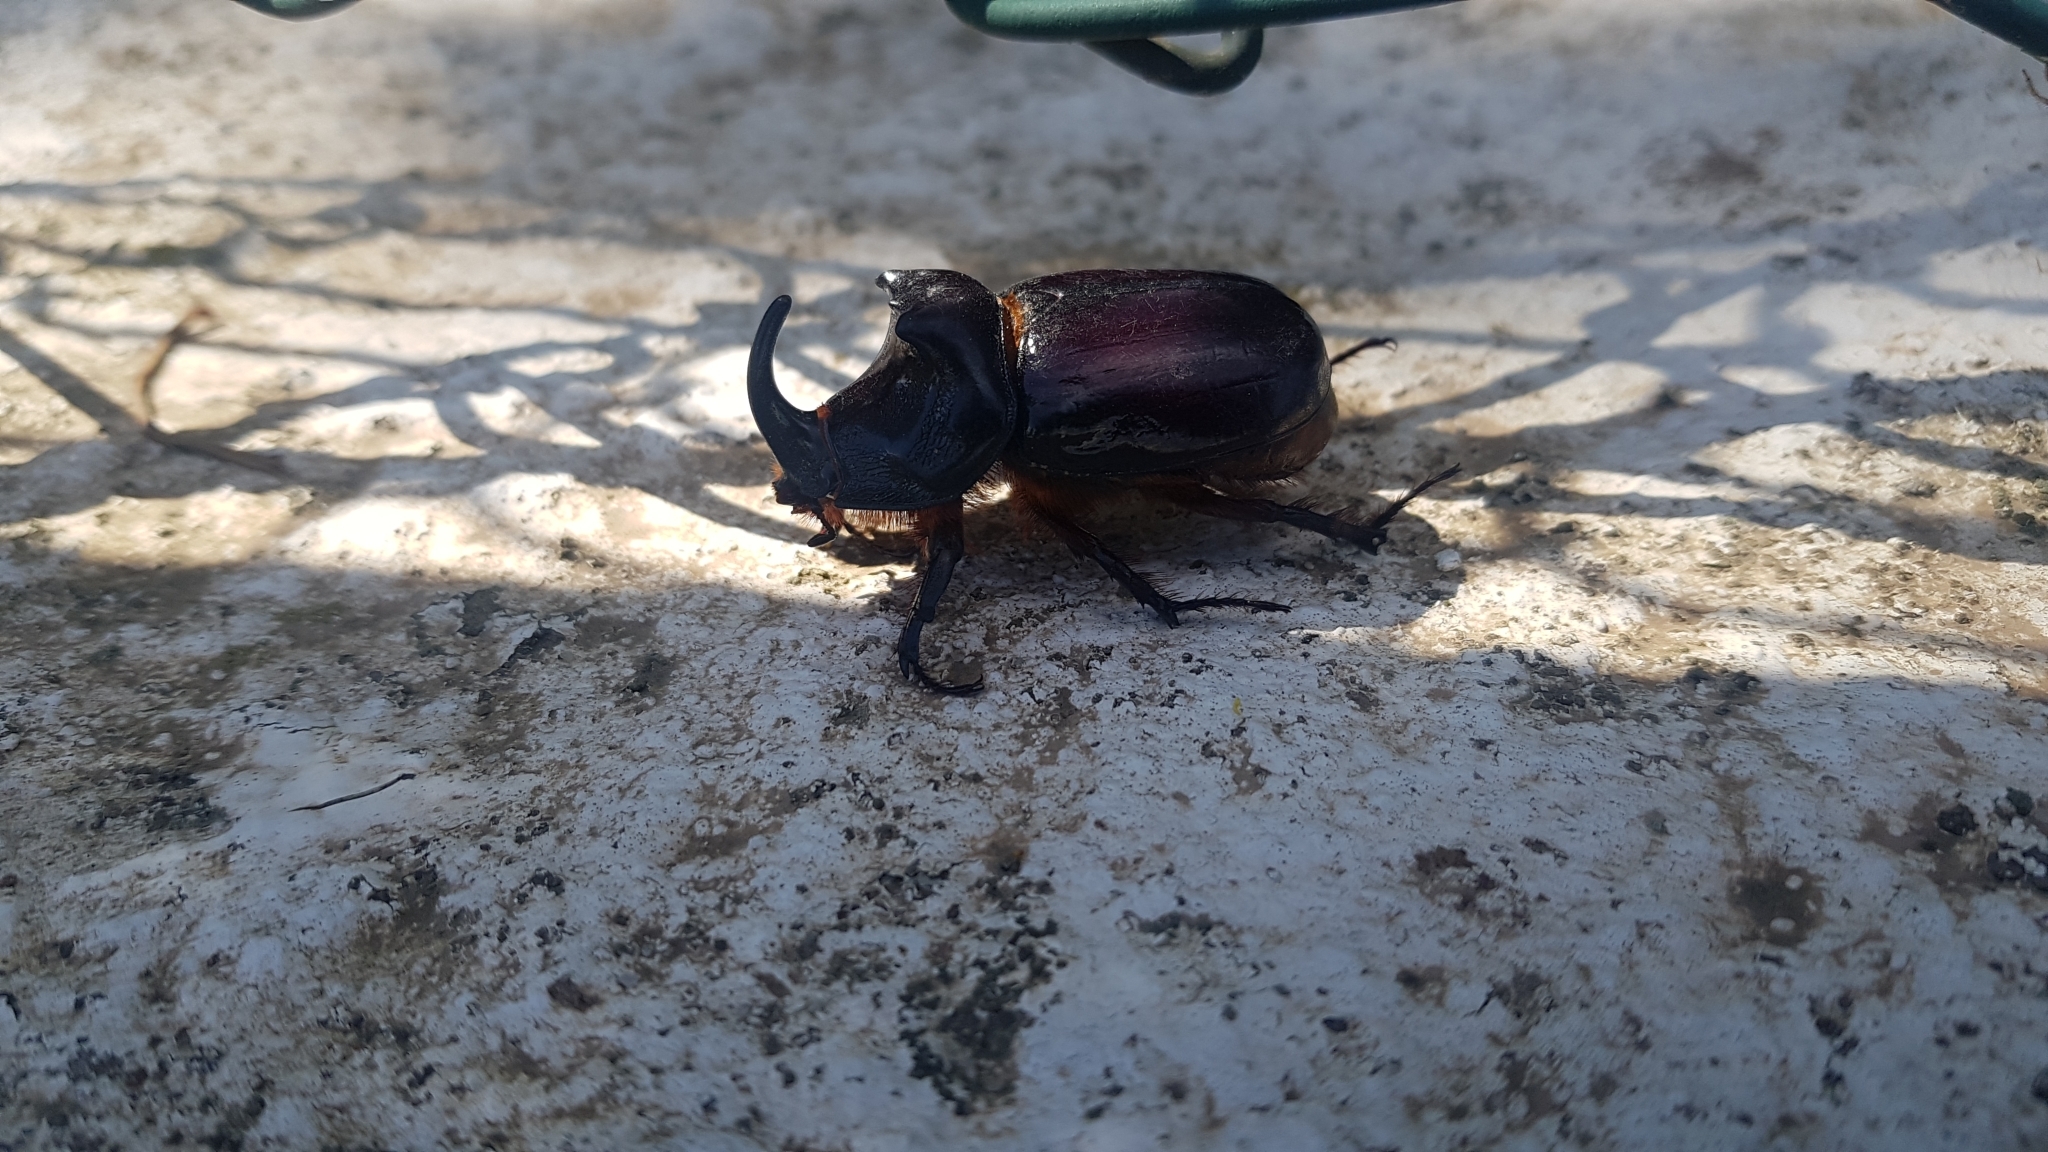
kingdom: Animalia
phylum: Arthropoda
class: Insecta
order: Coleoptera
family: Scarabaeidae
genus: Oryctes
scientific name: Oryctes nasicornis
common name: European rhinoceros beetle
